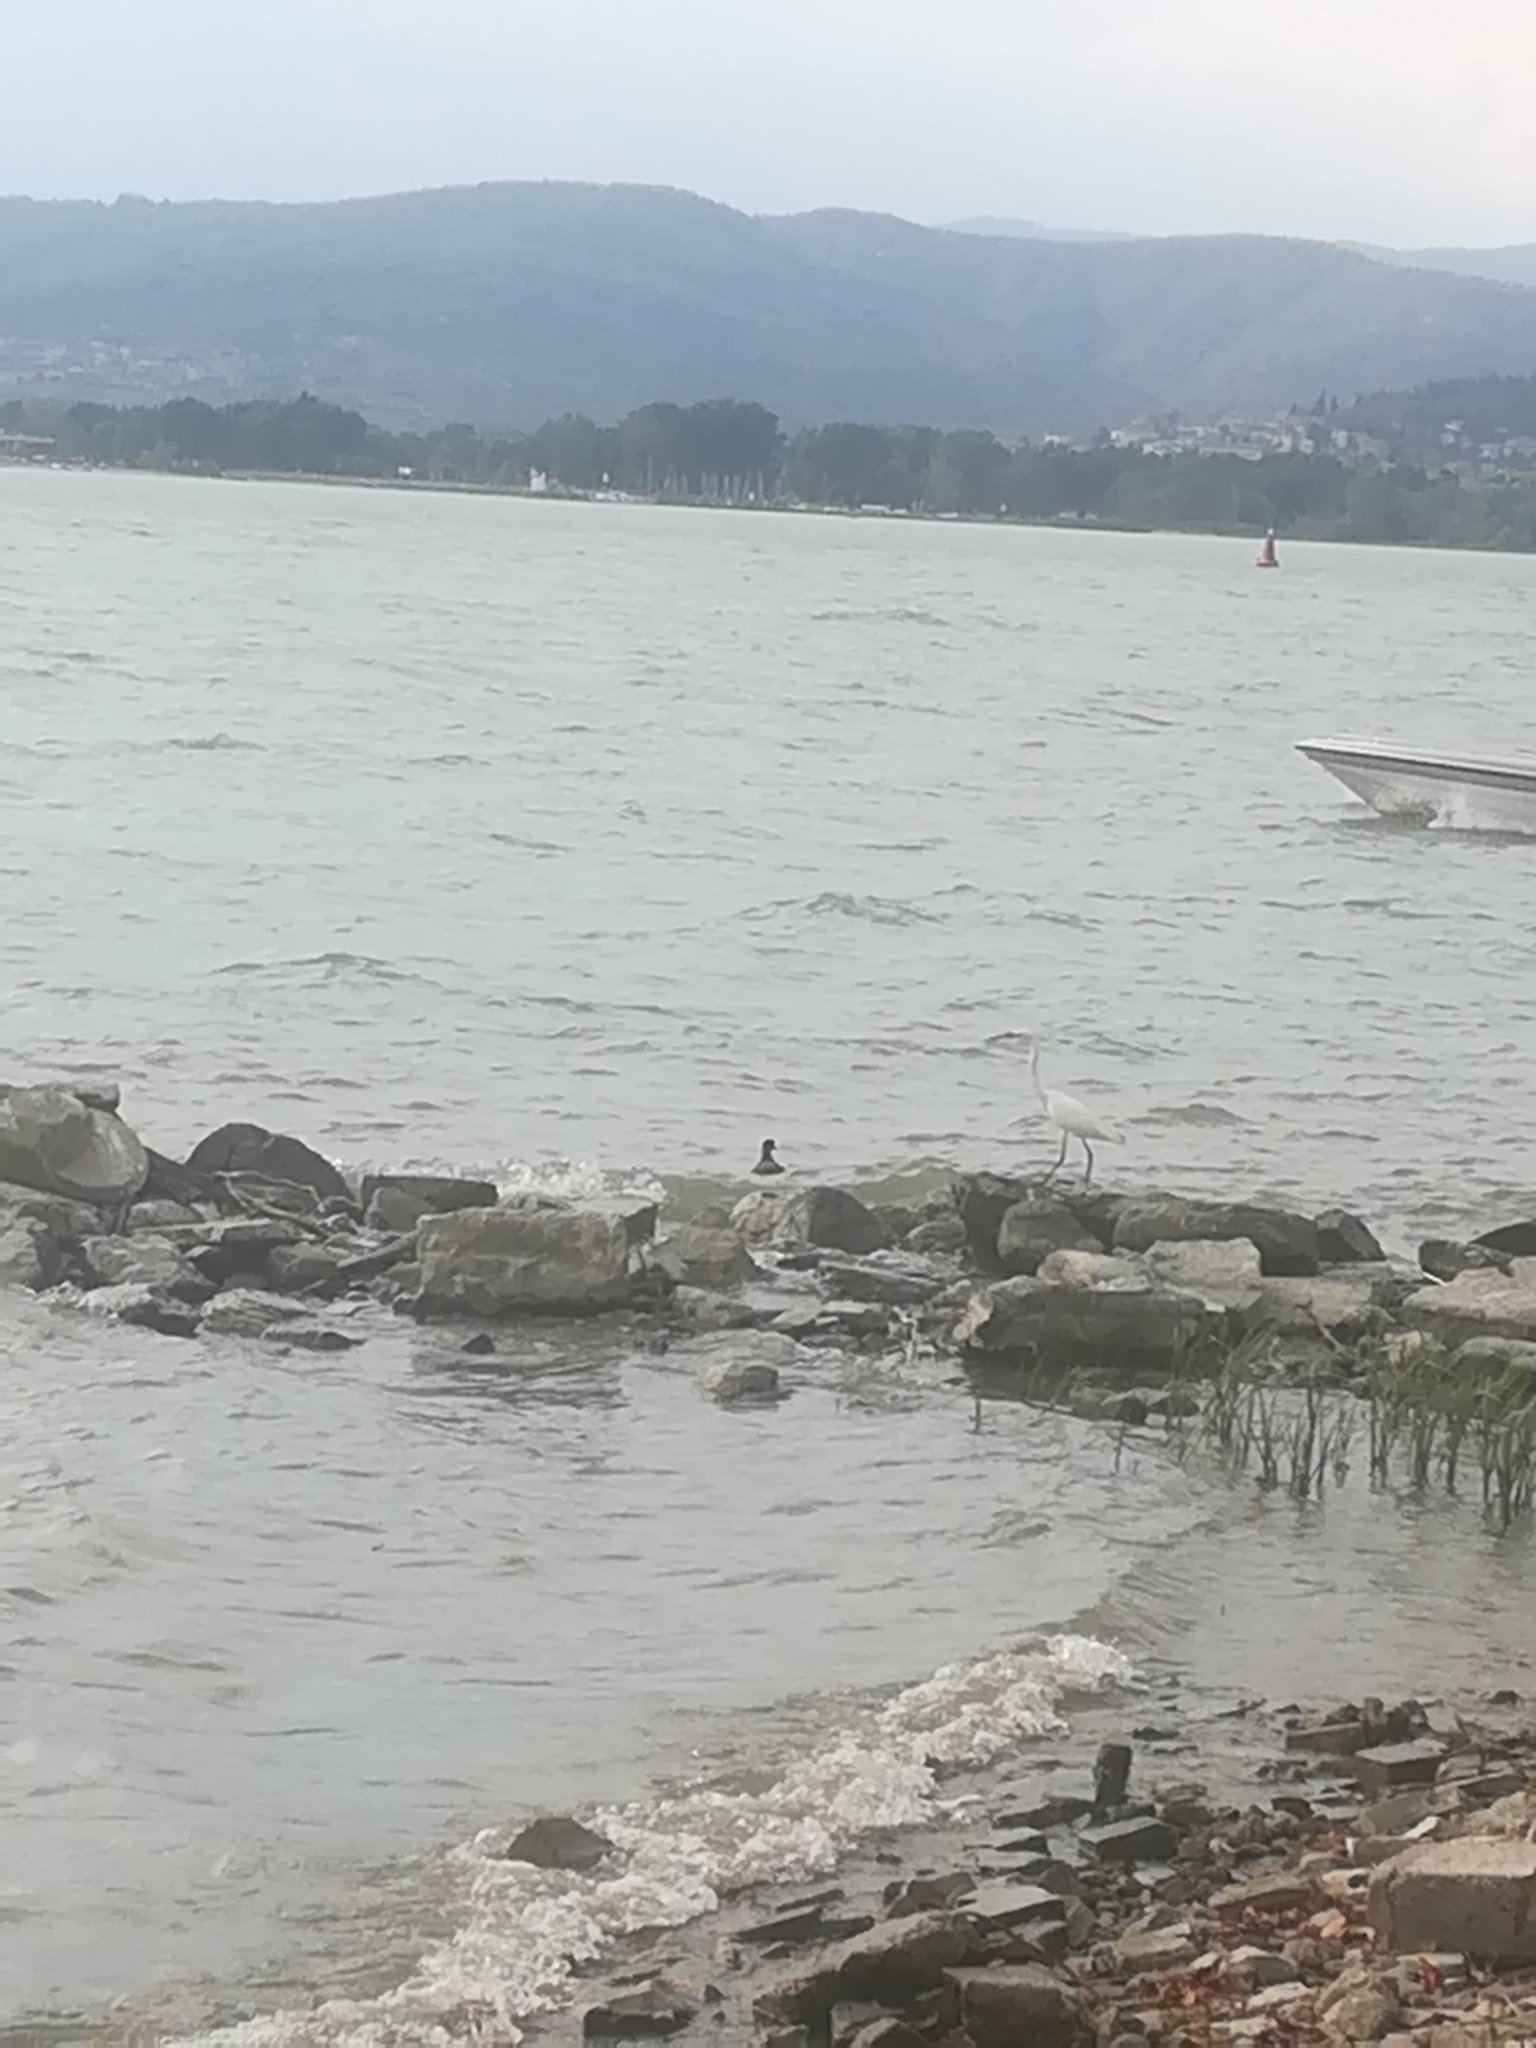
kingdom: Animalia
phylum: Chordata
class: Aves
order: Pelecaniformes
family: Ardeidae
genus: Egretta
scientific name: Egretta garzetta
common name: Little egret
